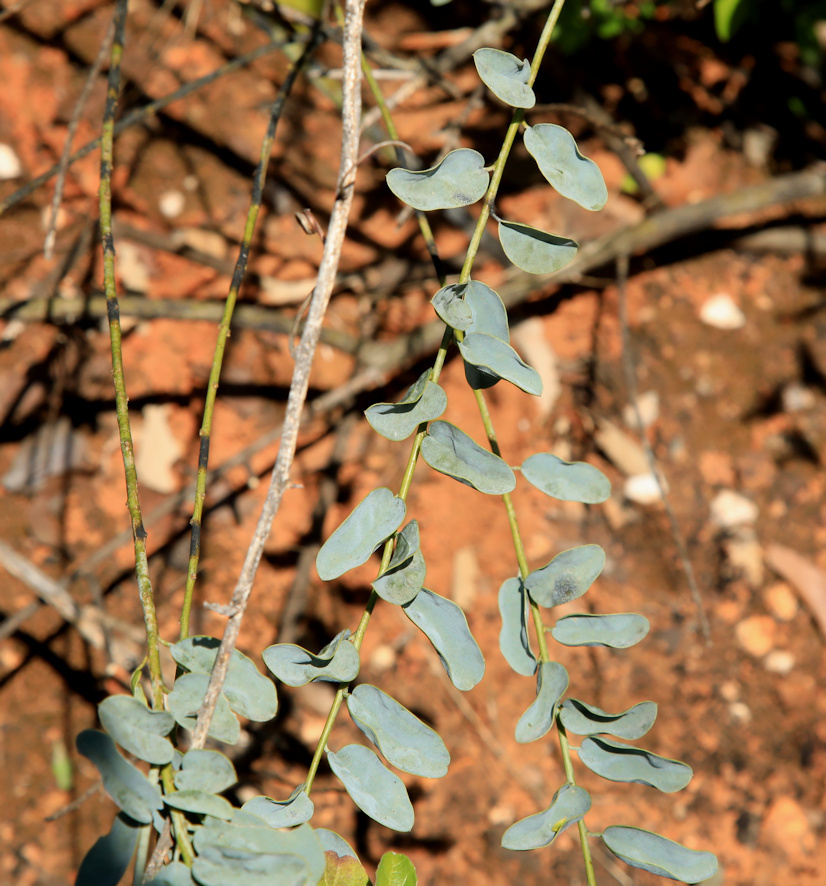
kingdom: Plantae
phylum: Tracheophyta
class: Magnoliopsida
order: Brassicales
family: Capparaceae
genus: Maerua
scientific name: Maerua decumbens
